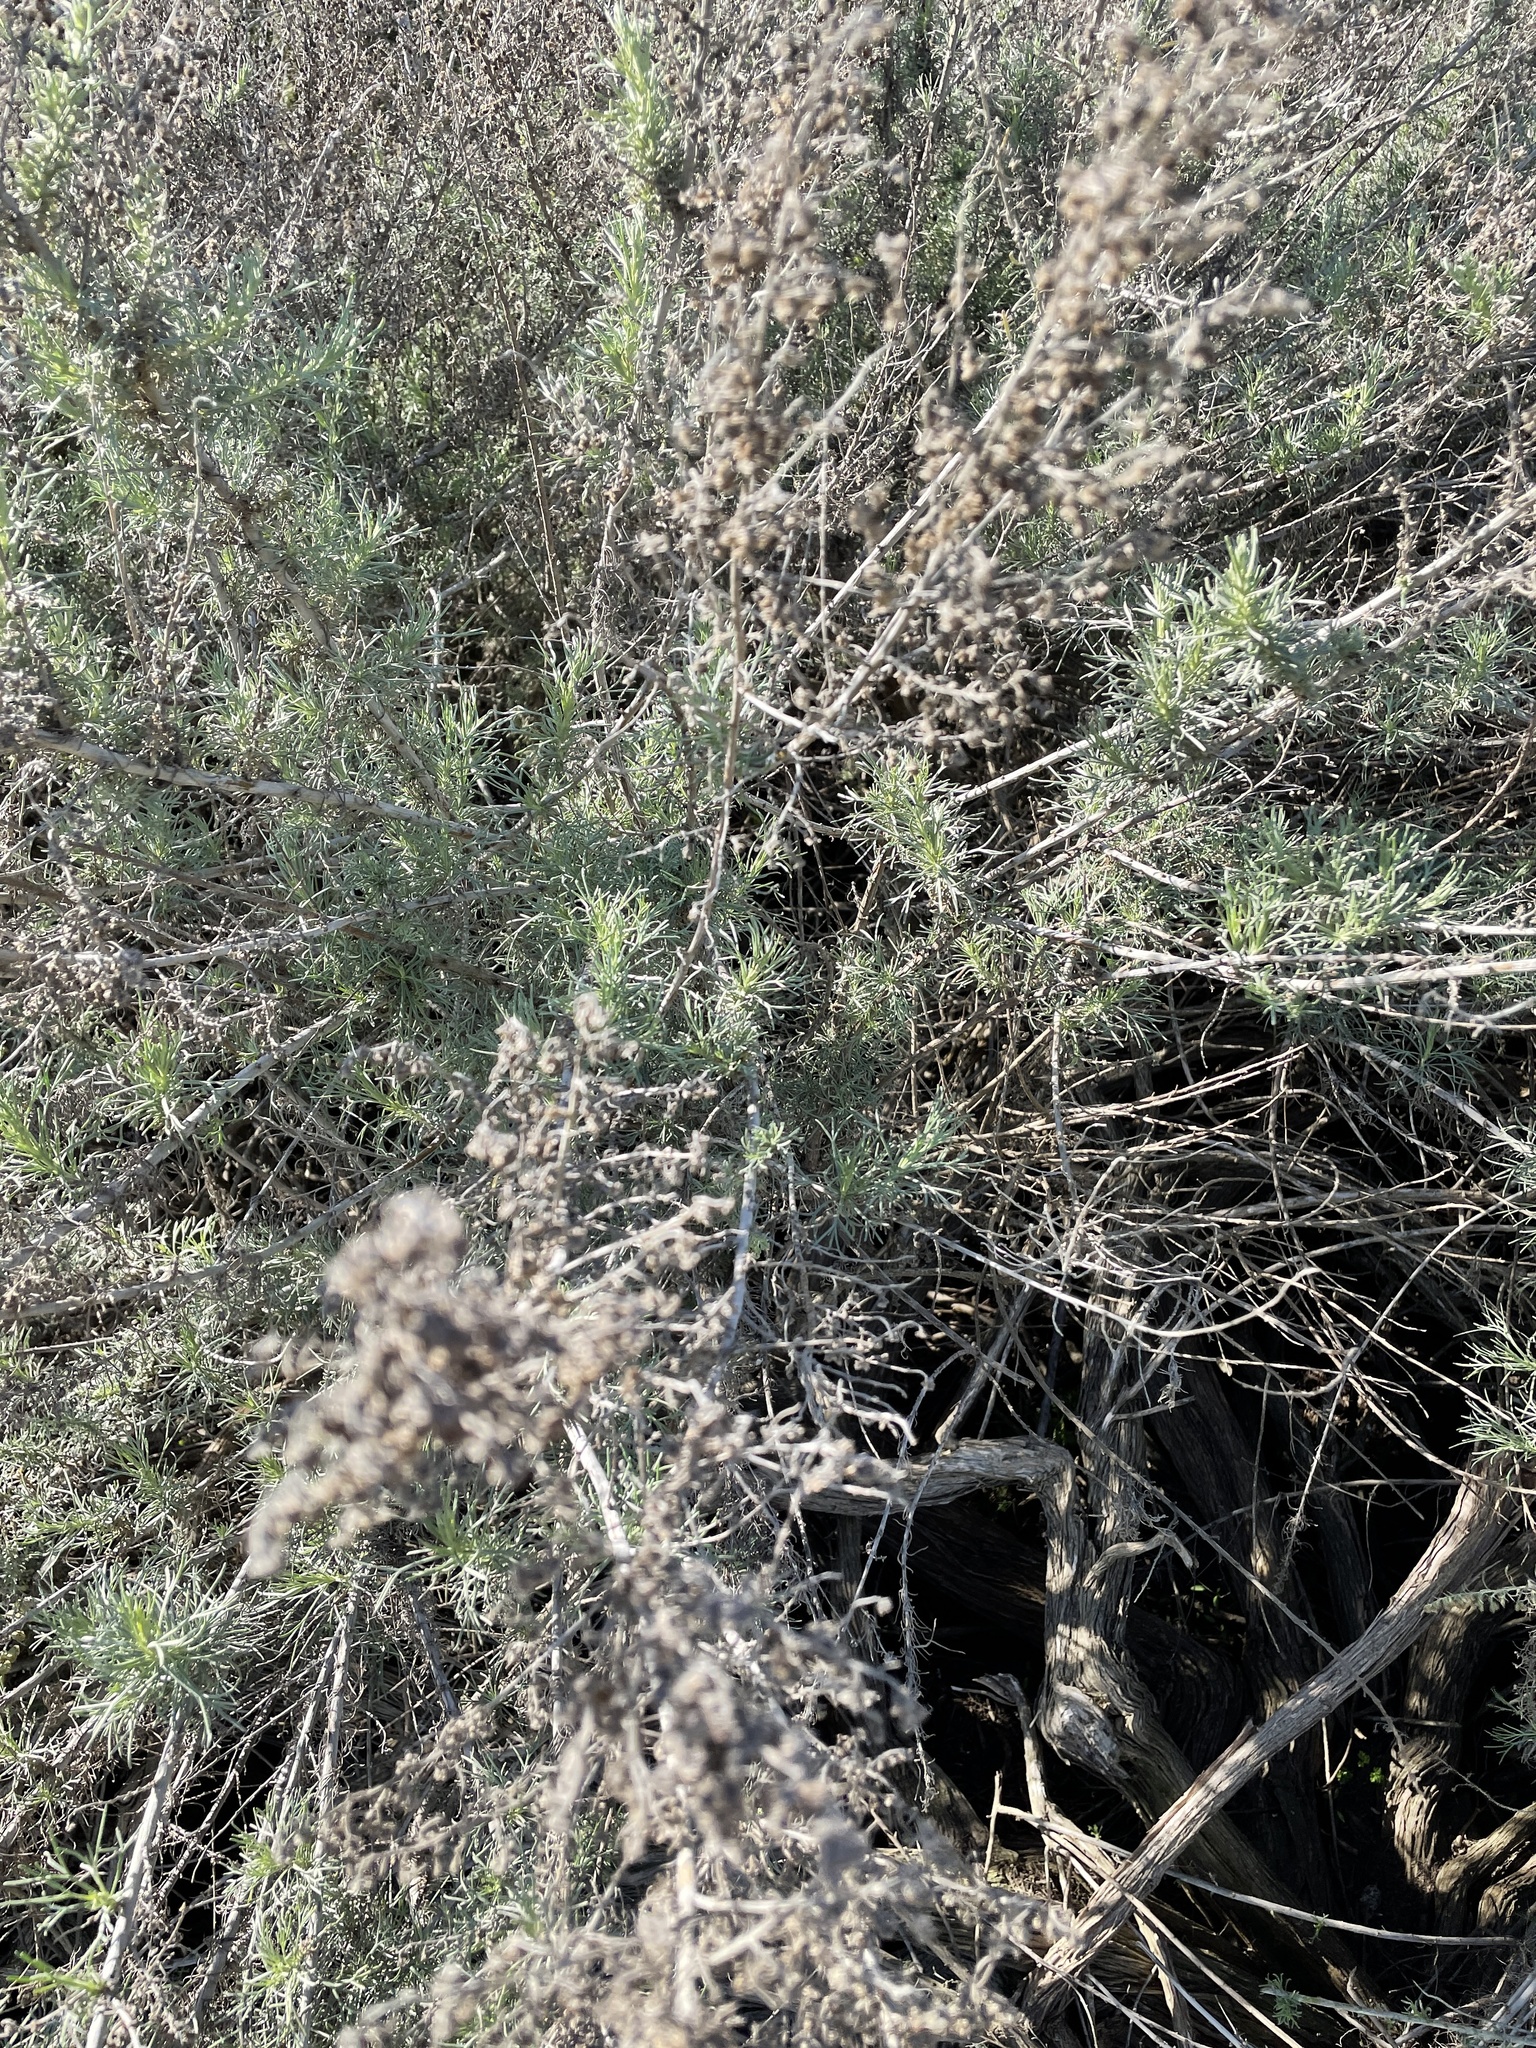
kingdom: Plantae
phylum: Tracheophyta
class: Magnoliopsida
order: Asterales
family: Asteraceae
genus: Artemisia
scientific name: Artemisia californica
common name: California sagebrush
